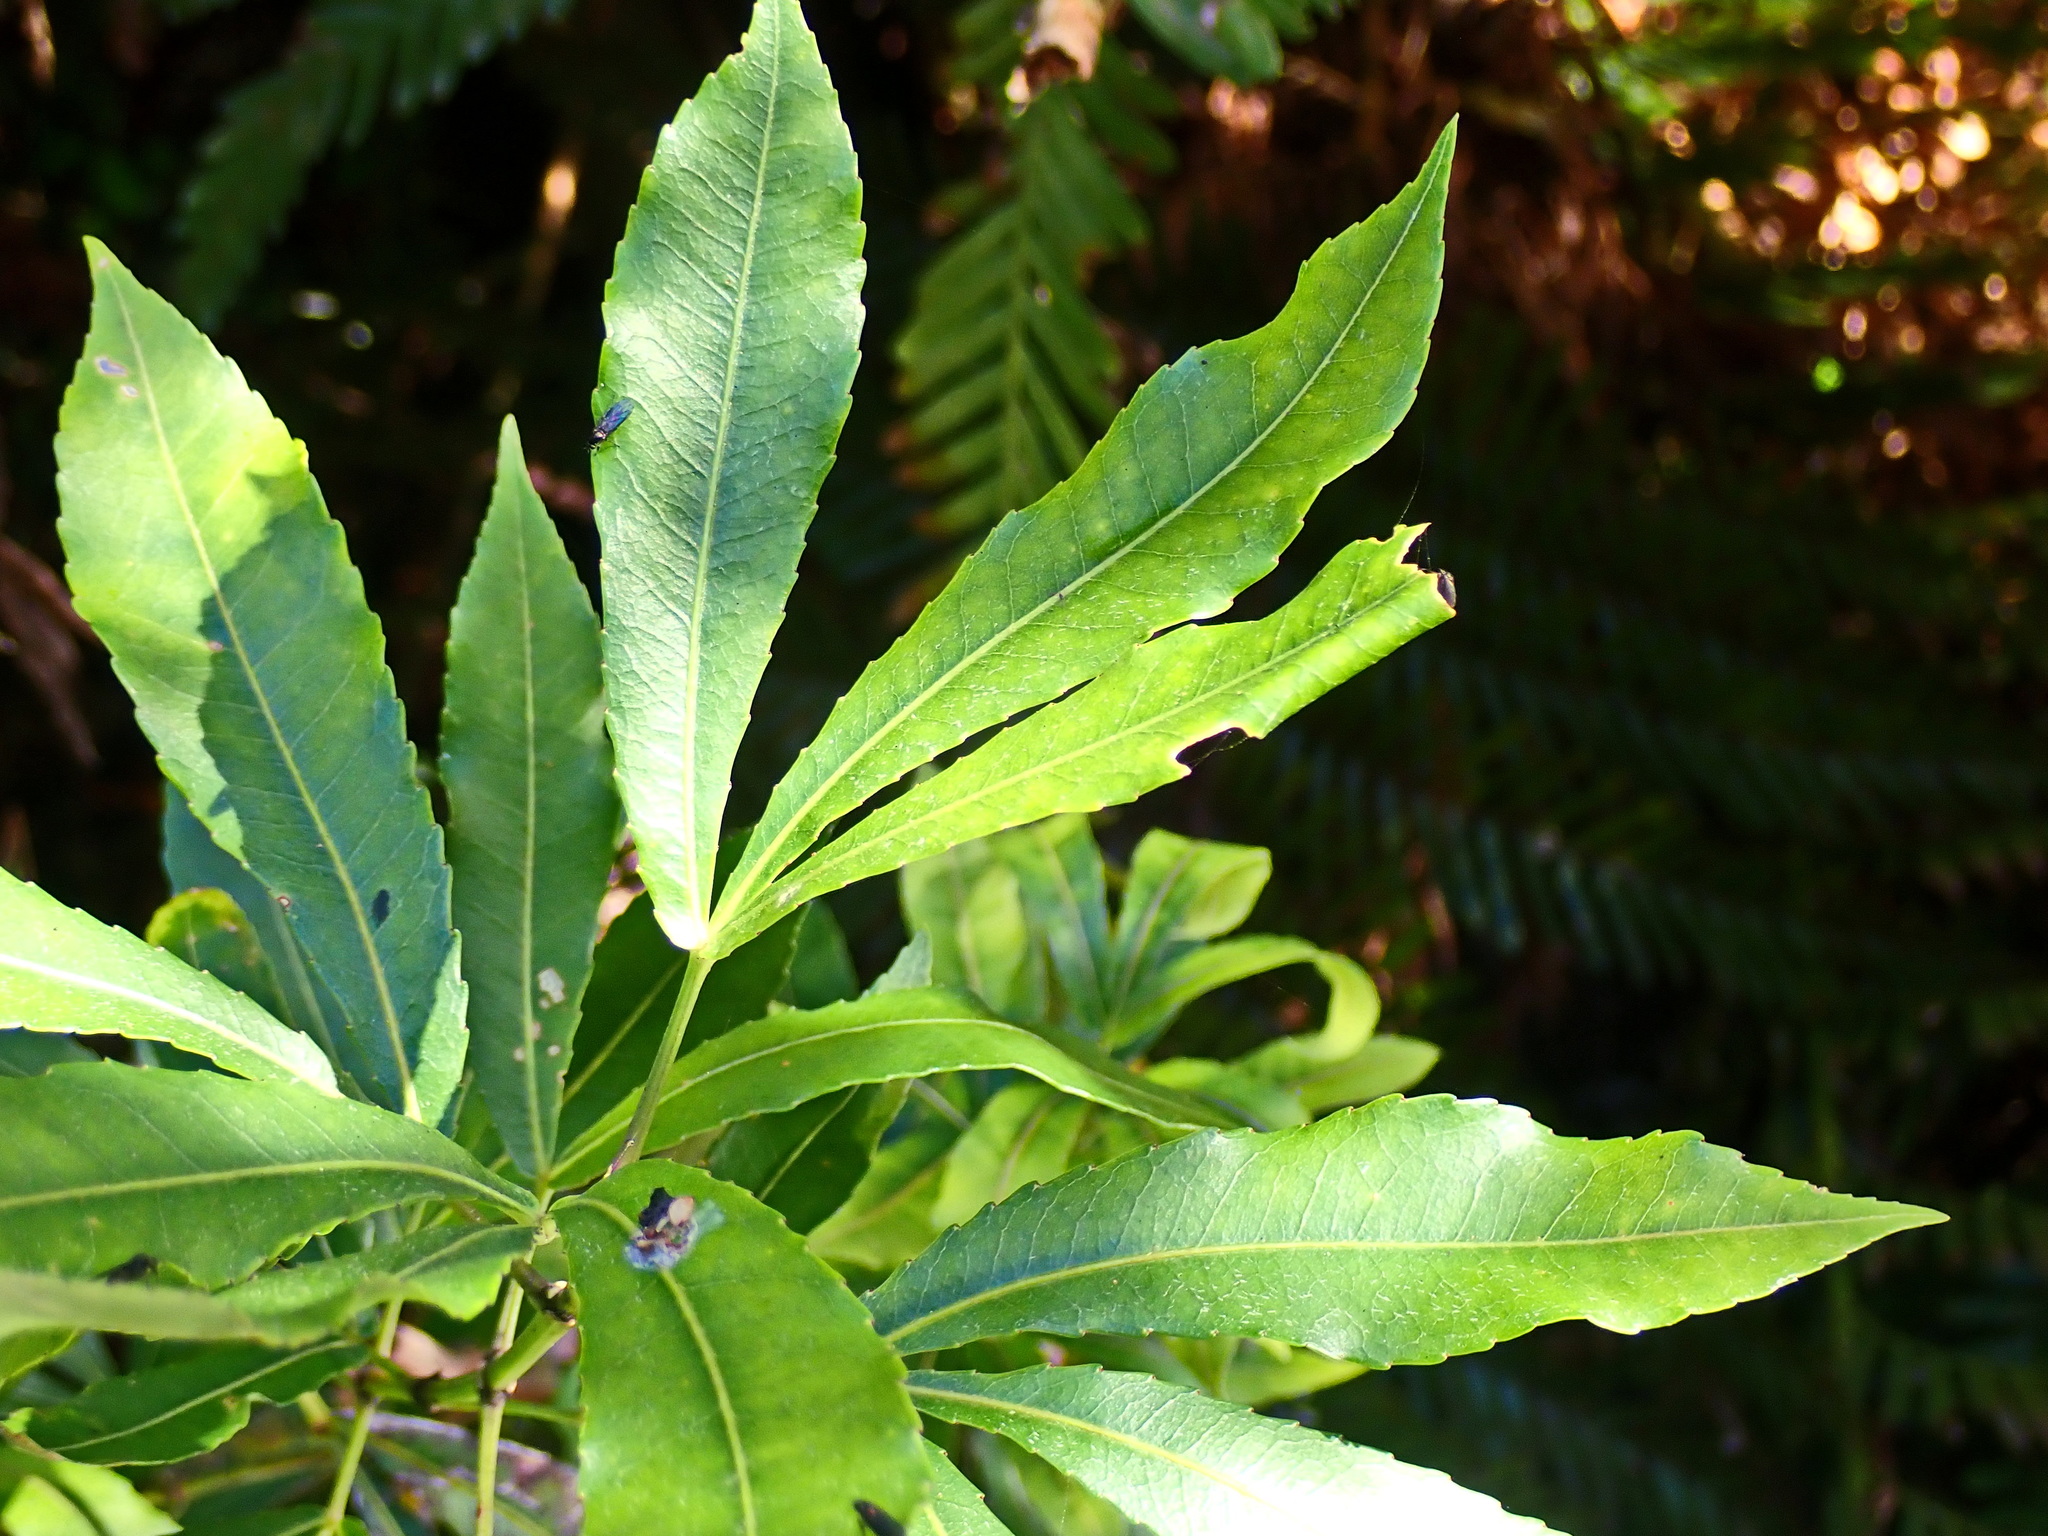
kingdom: Plantae
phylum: Tracheophyta
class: Magnoliopsida
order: Oxalidales
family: Cunoniaceae
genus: Platylophus
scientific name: Platylophus trifoliatus
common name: White alder
